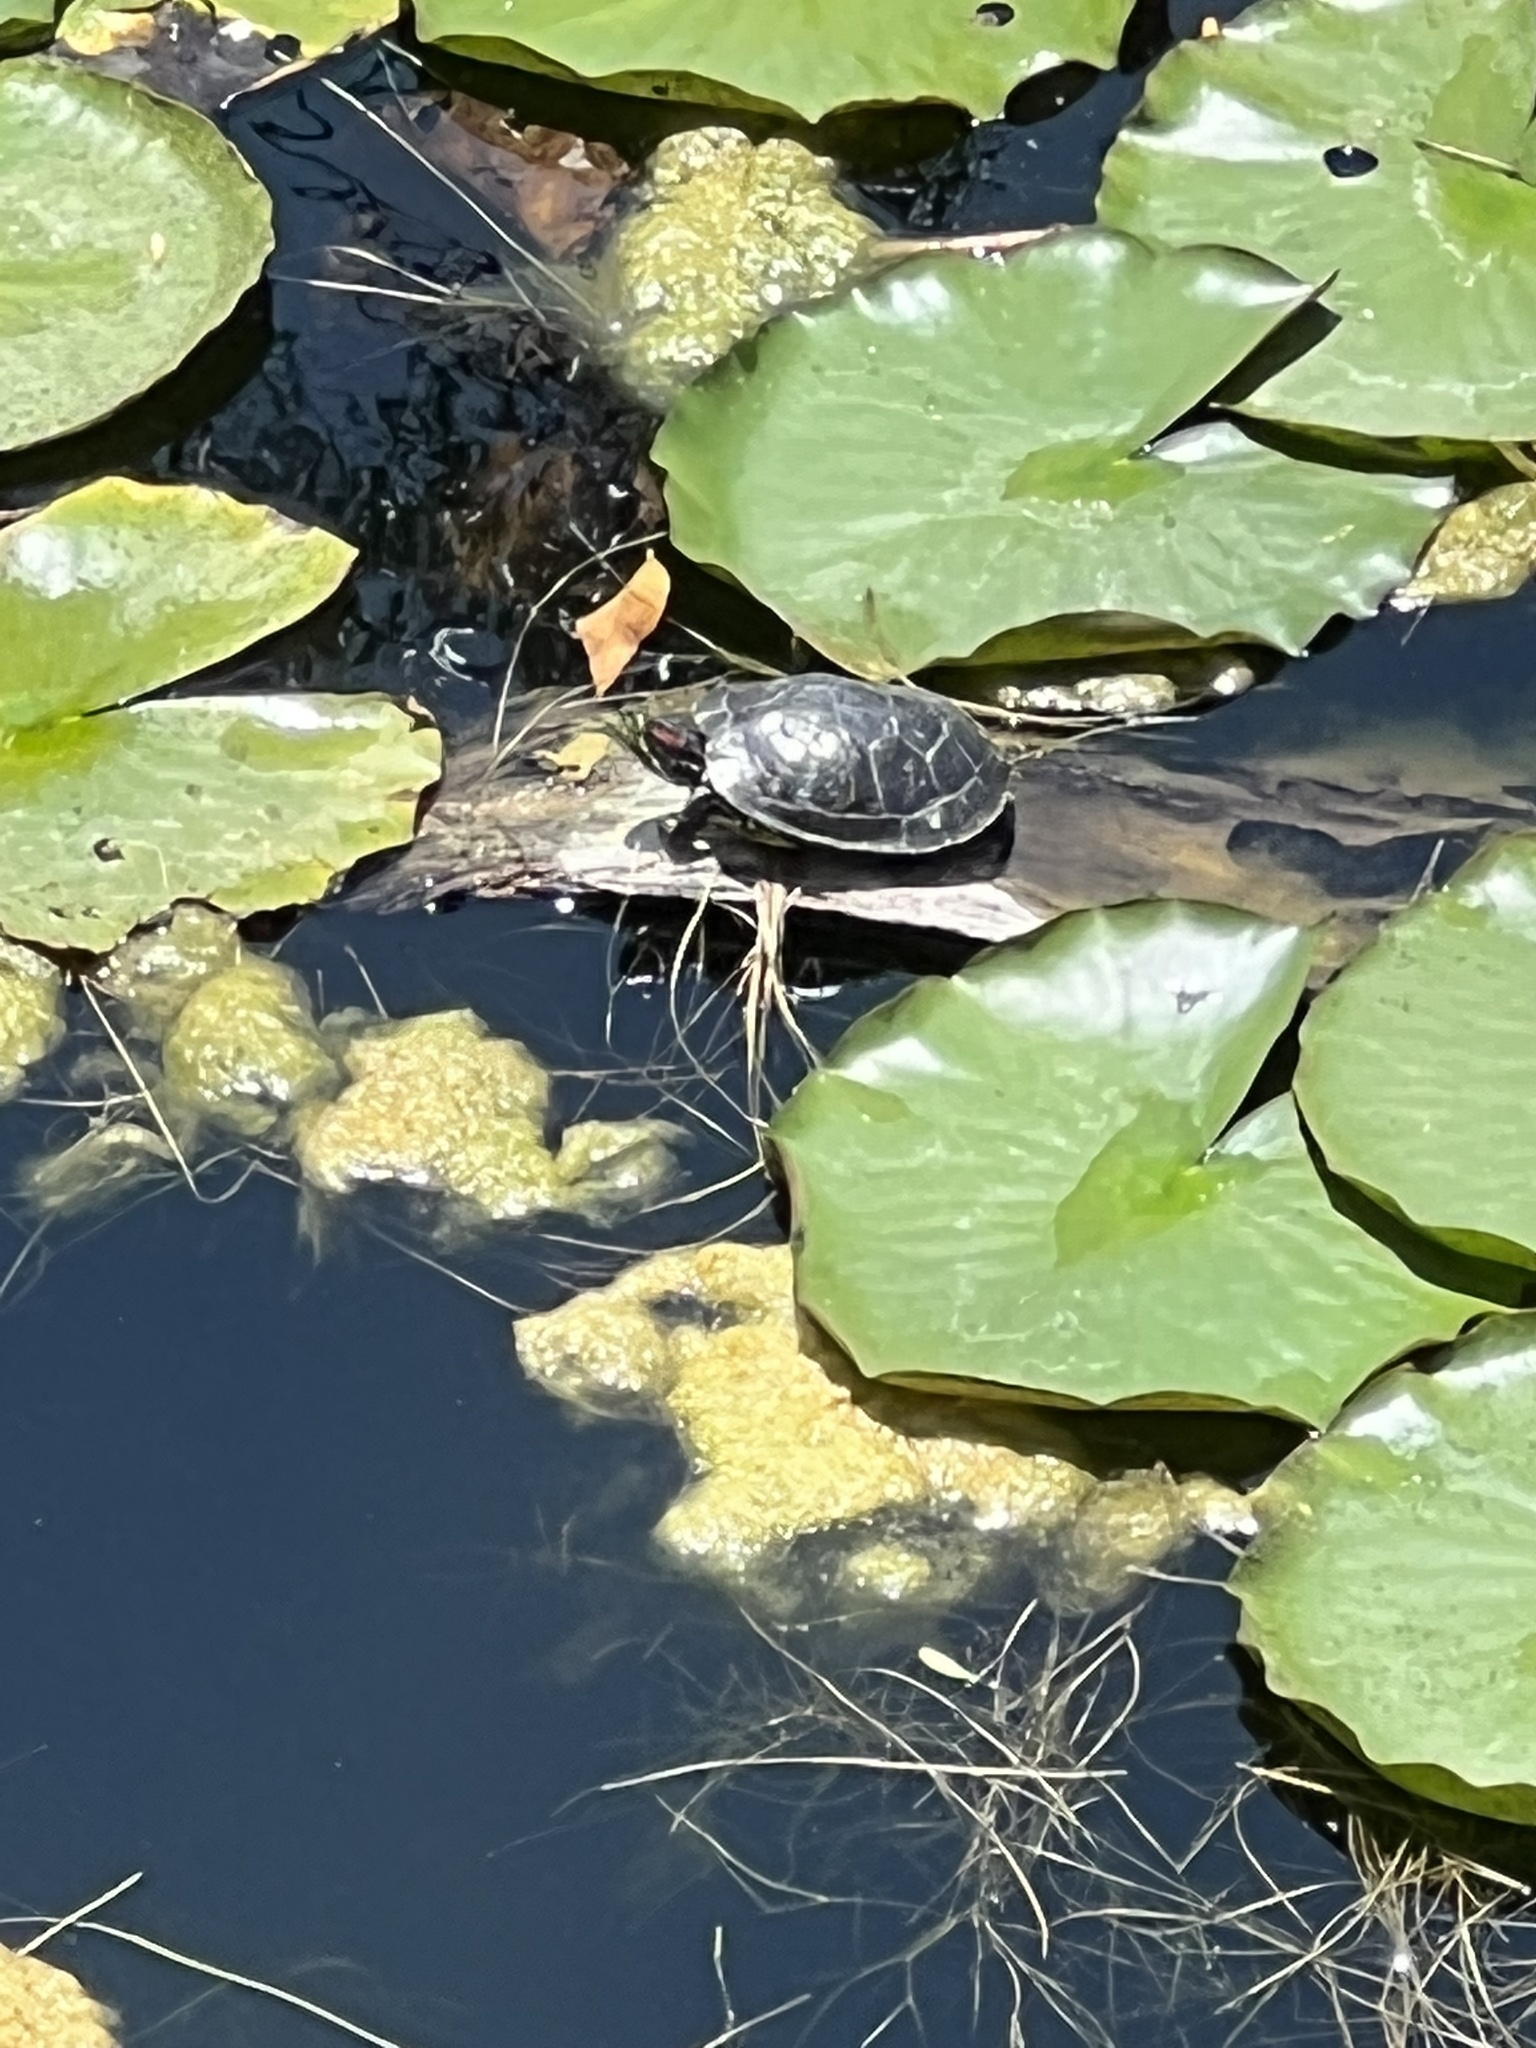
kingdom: Animalia
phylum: Chordata
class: Testudines
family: Emydidae
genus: Trachemys
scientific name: Trachemys scripta
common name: Slider
